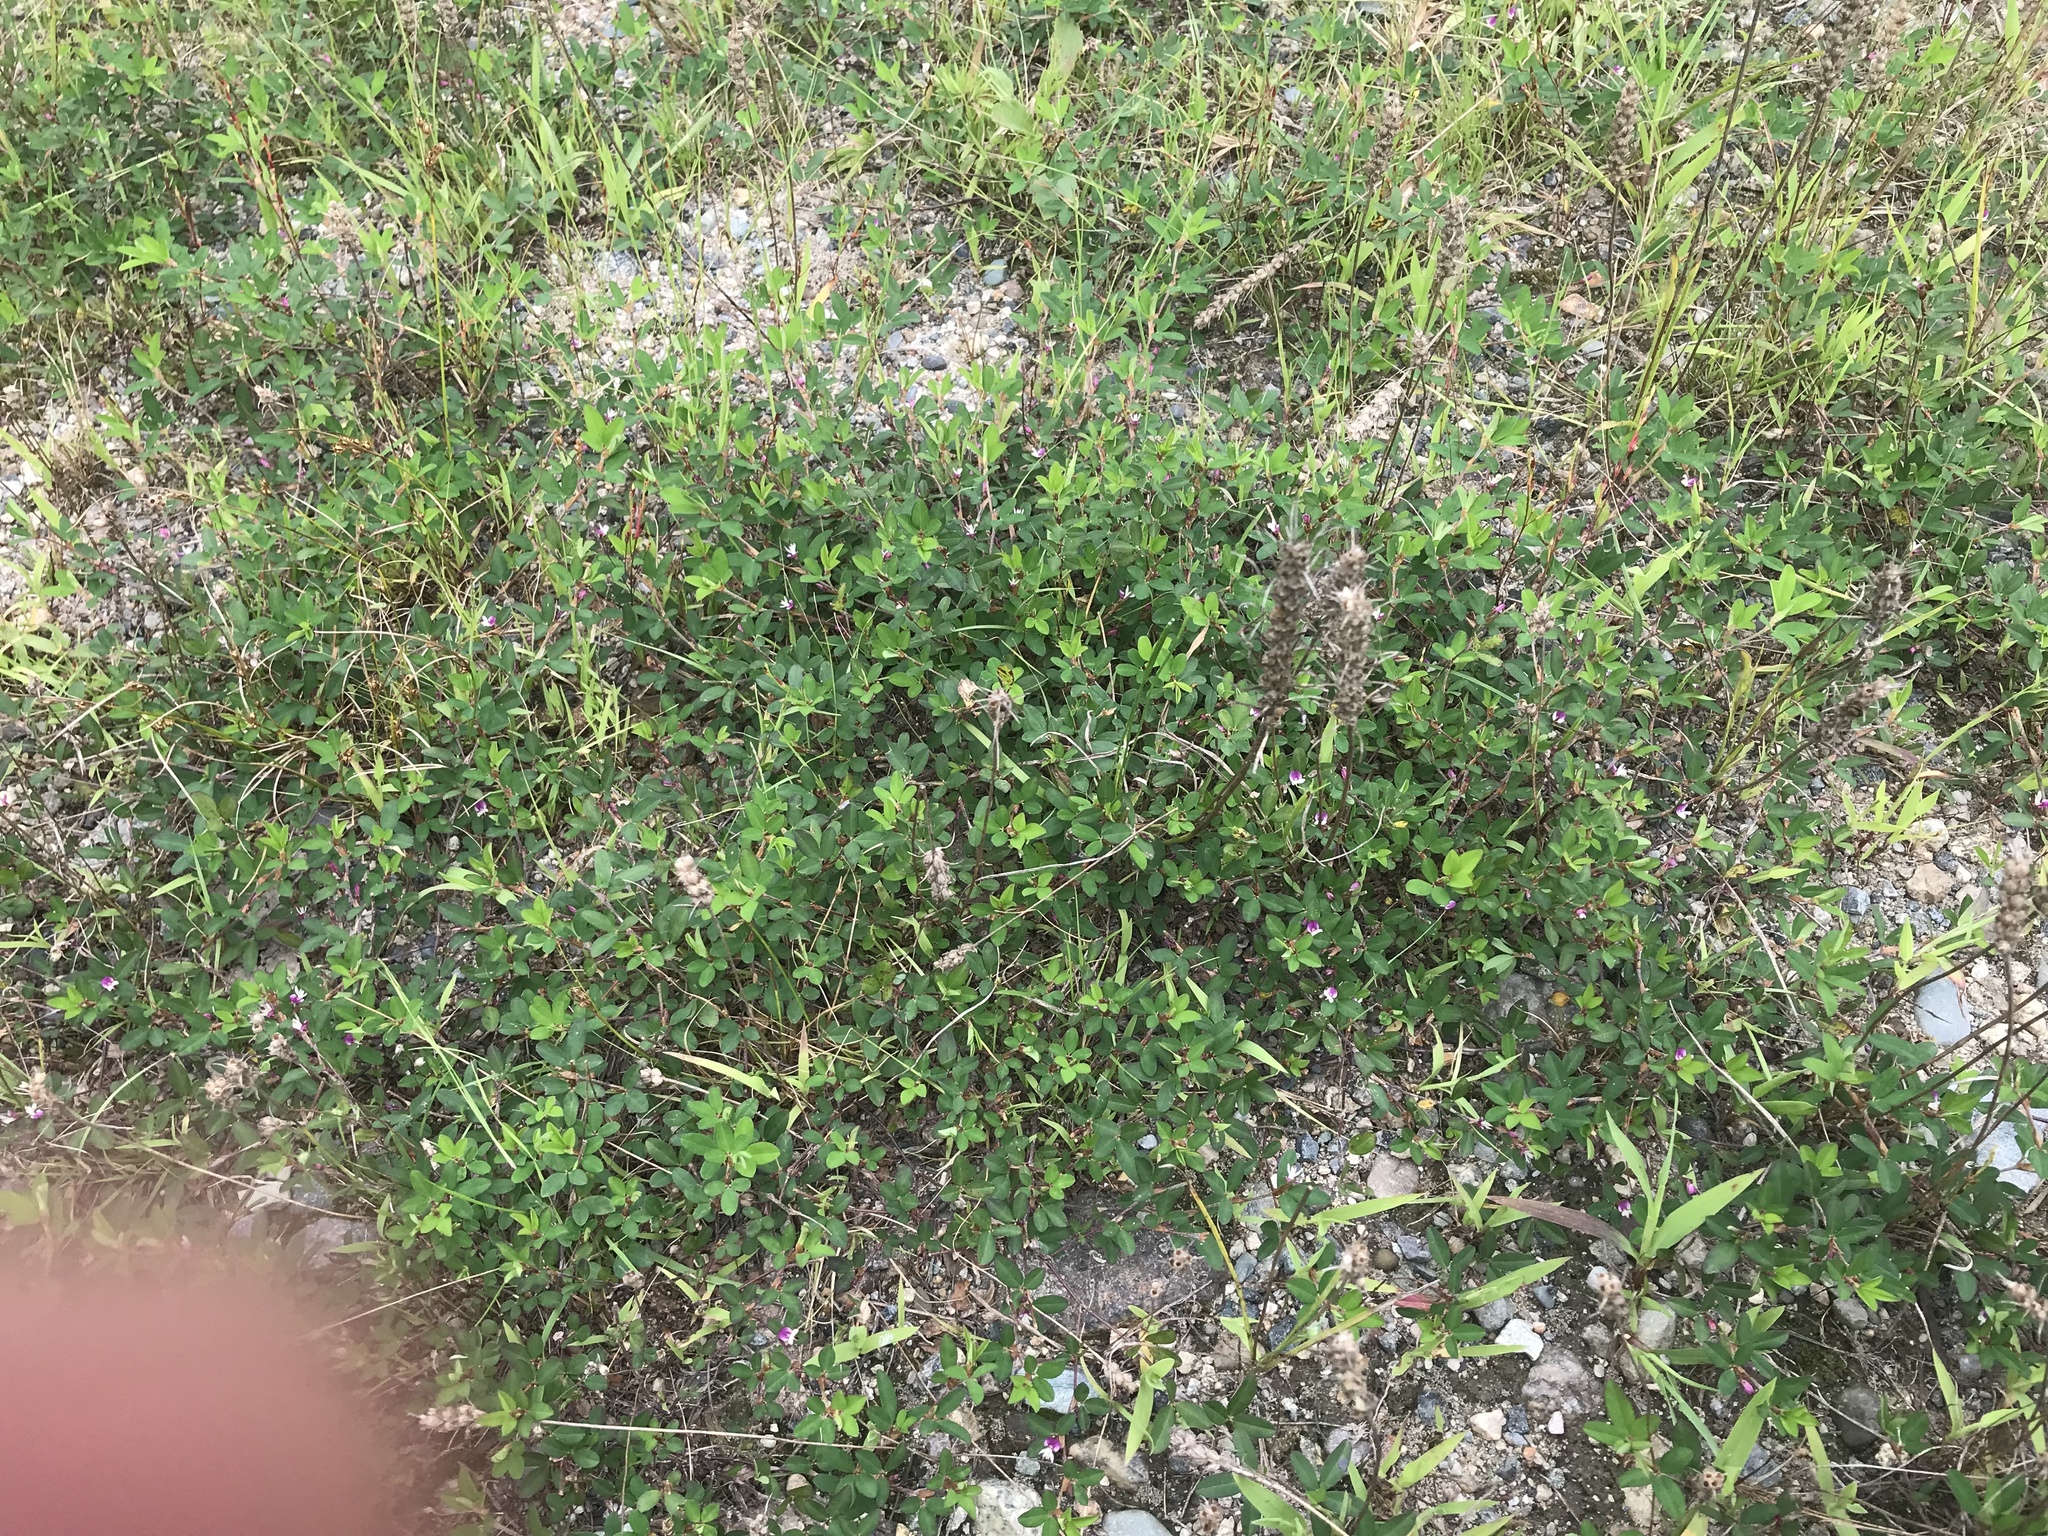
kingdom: Plantae
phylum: Tracheophyta
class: Magnoliopsida
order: Fabales
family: Fabaceae
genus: Kummerowia
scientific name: Kummerowia striata
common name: Japanese clover
